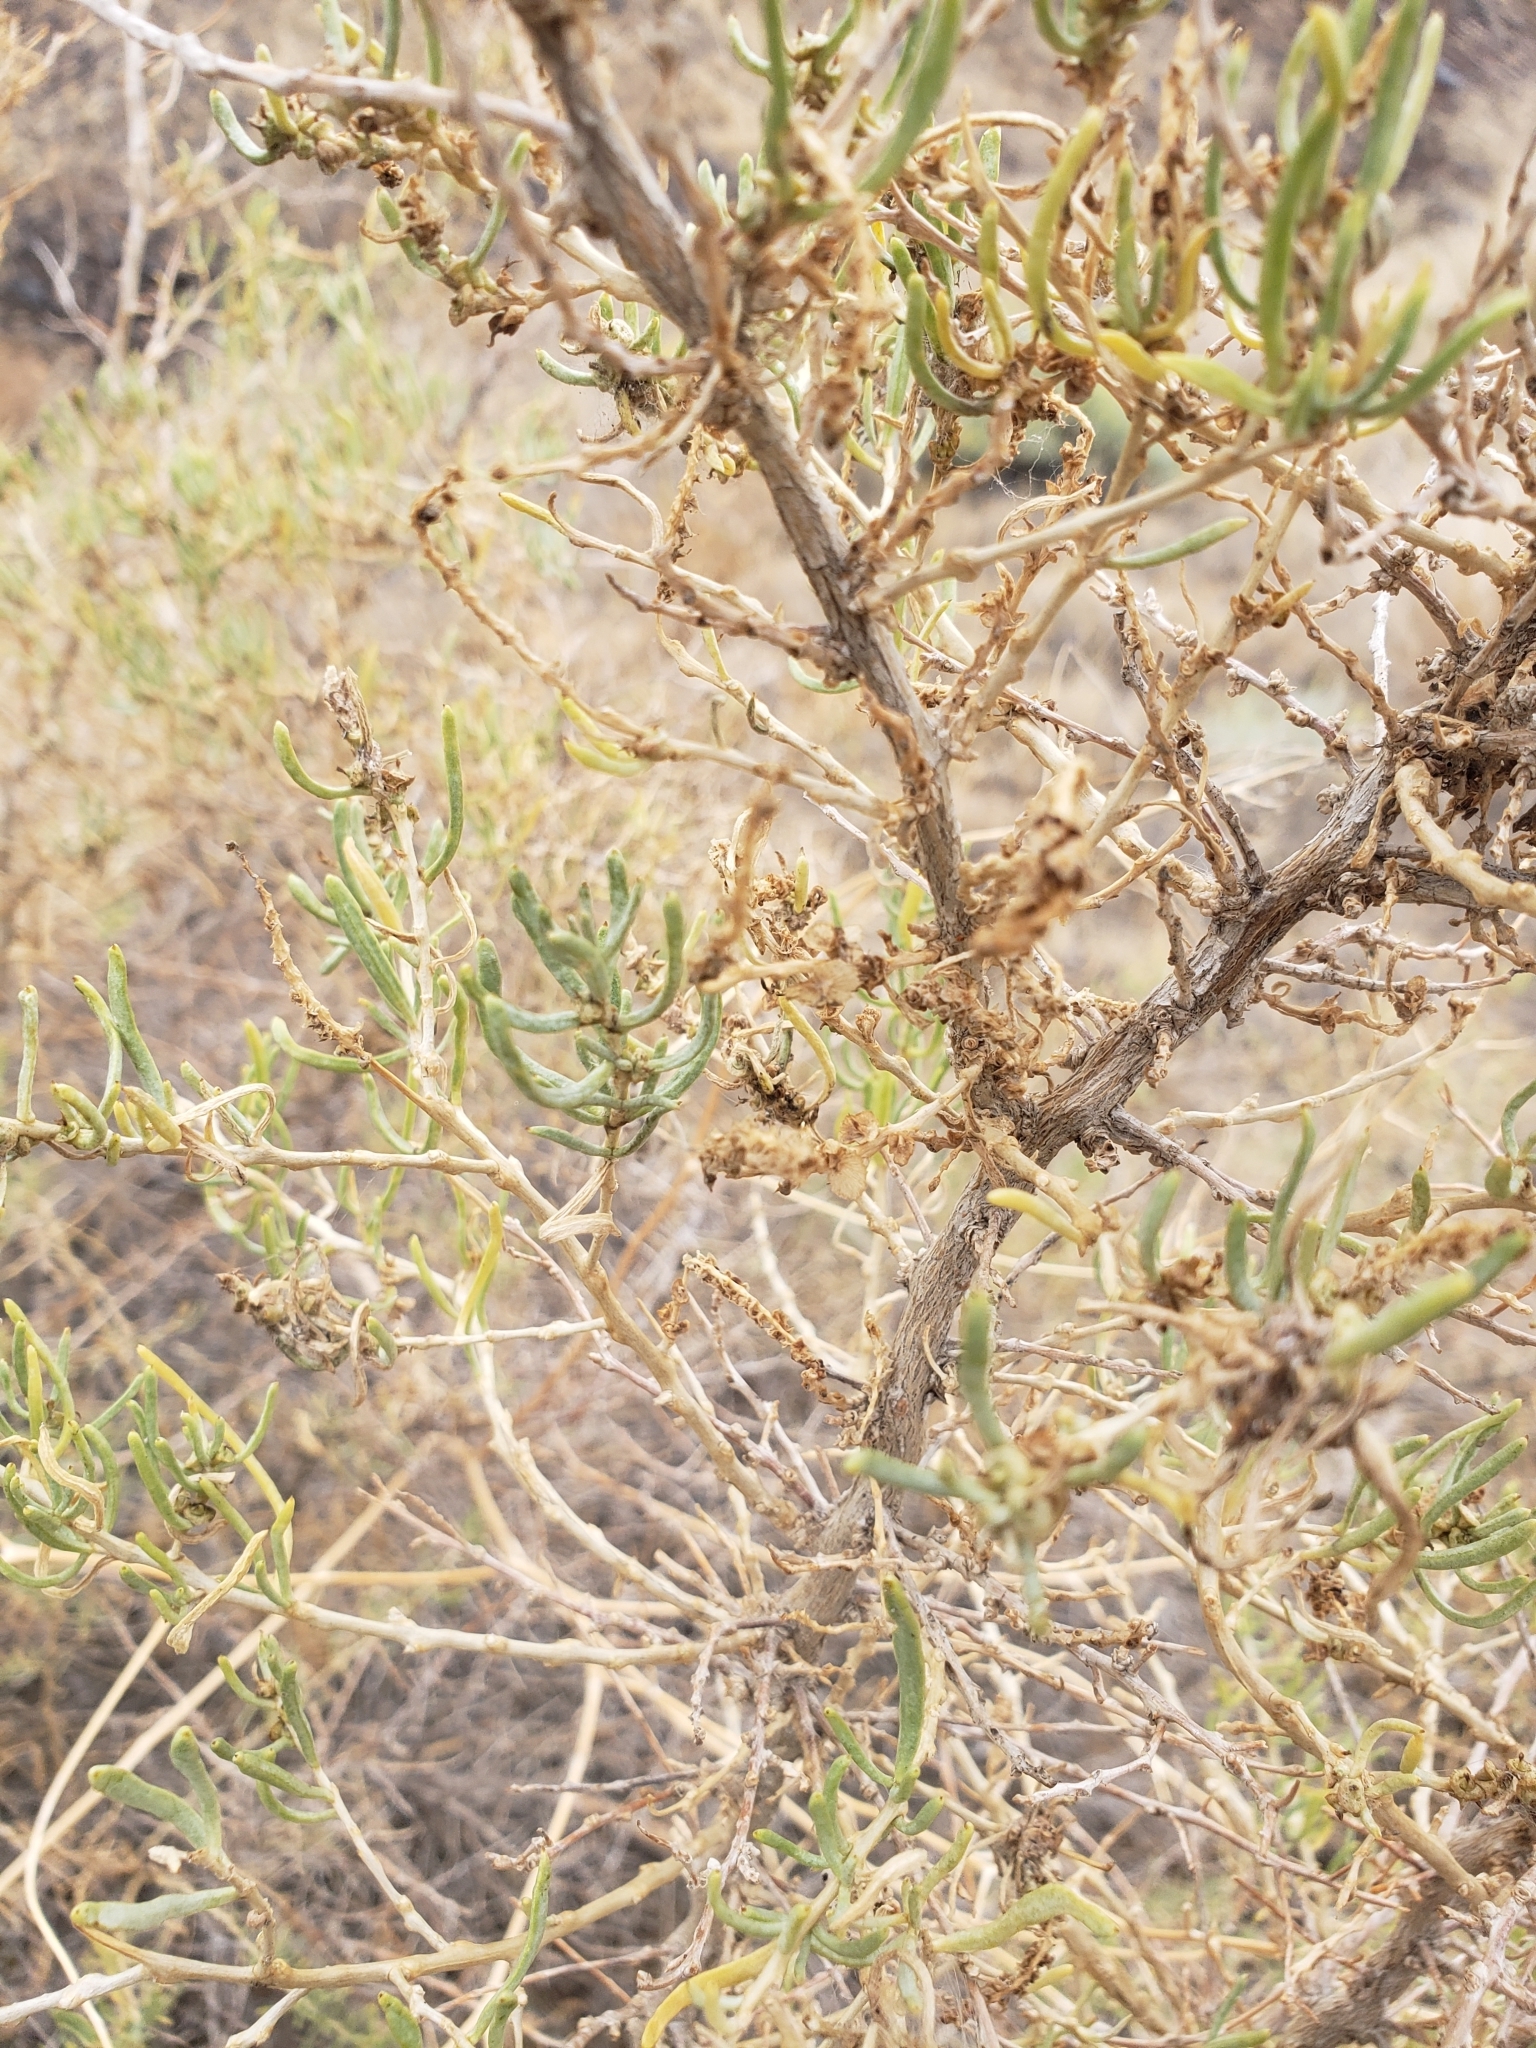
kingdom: Plantae
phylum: Tracheophyta
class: Magnoliopsida
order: Caryophyllales
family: Sarcobataceae
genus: Sarcobatus
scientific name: Sarcobatus vermiculatus
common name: Greasewood
